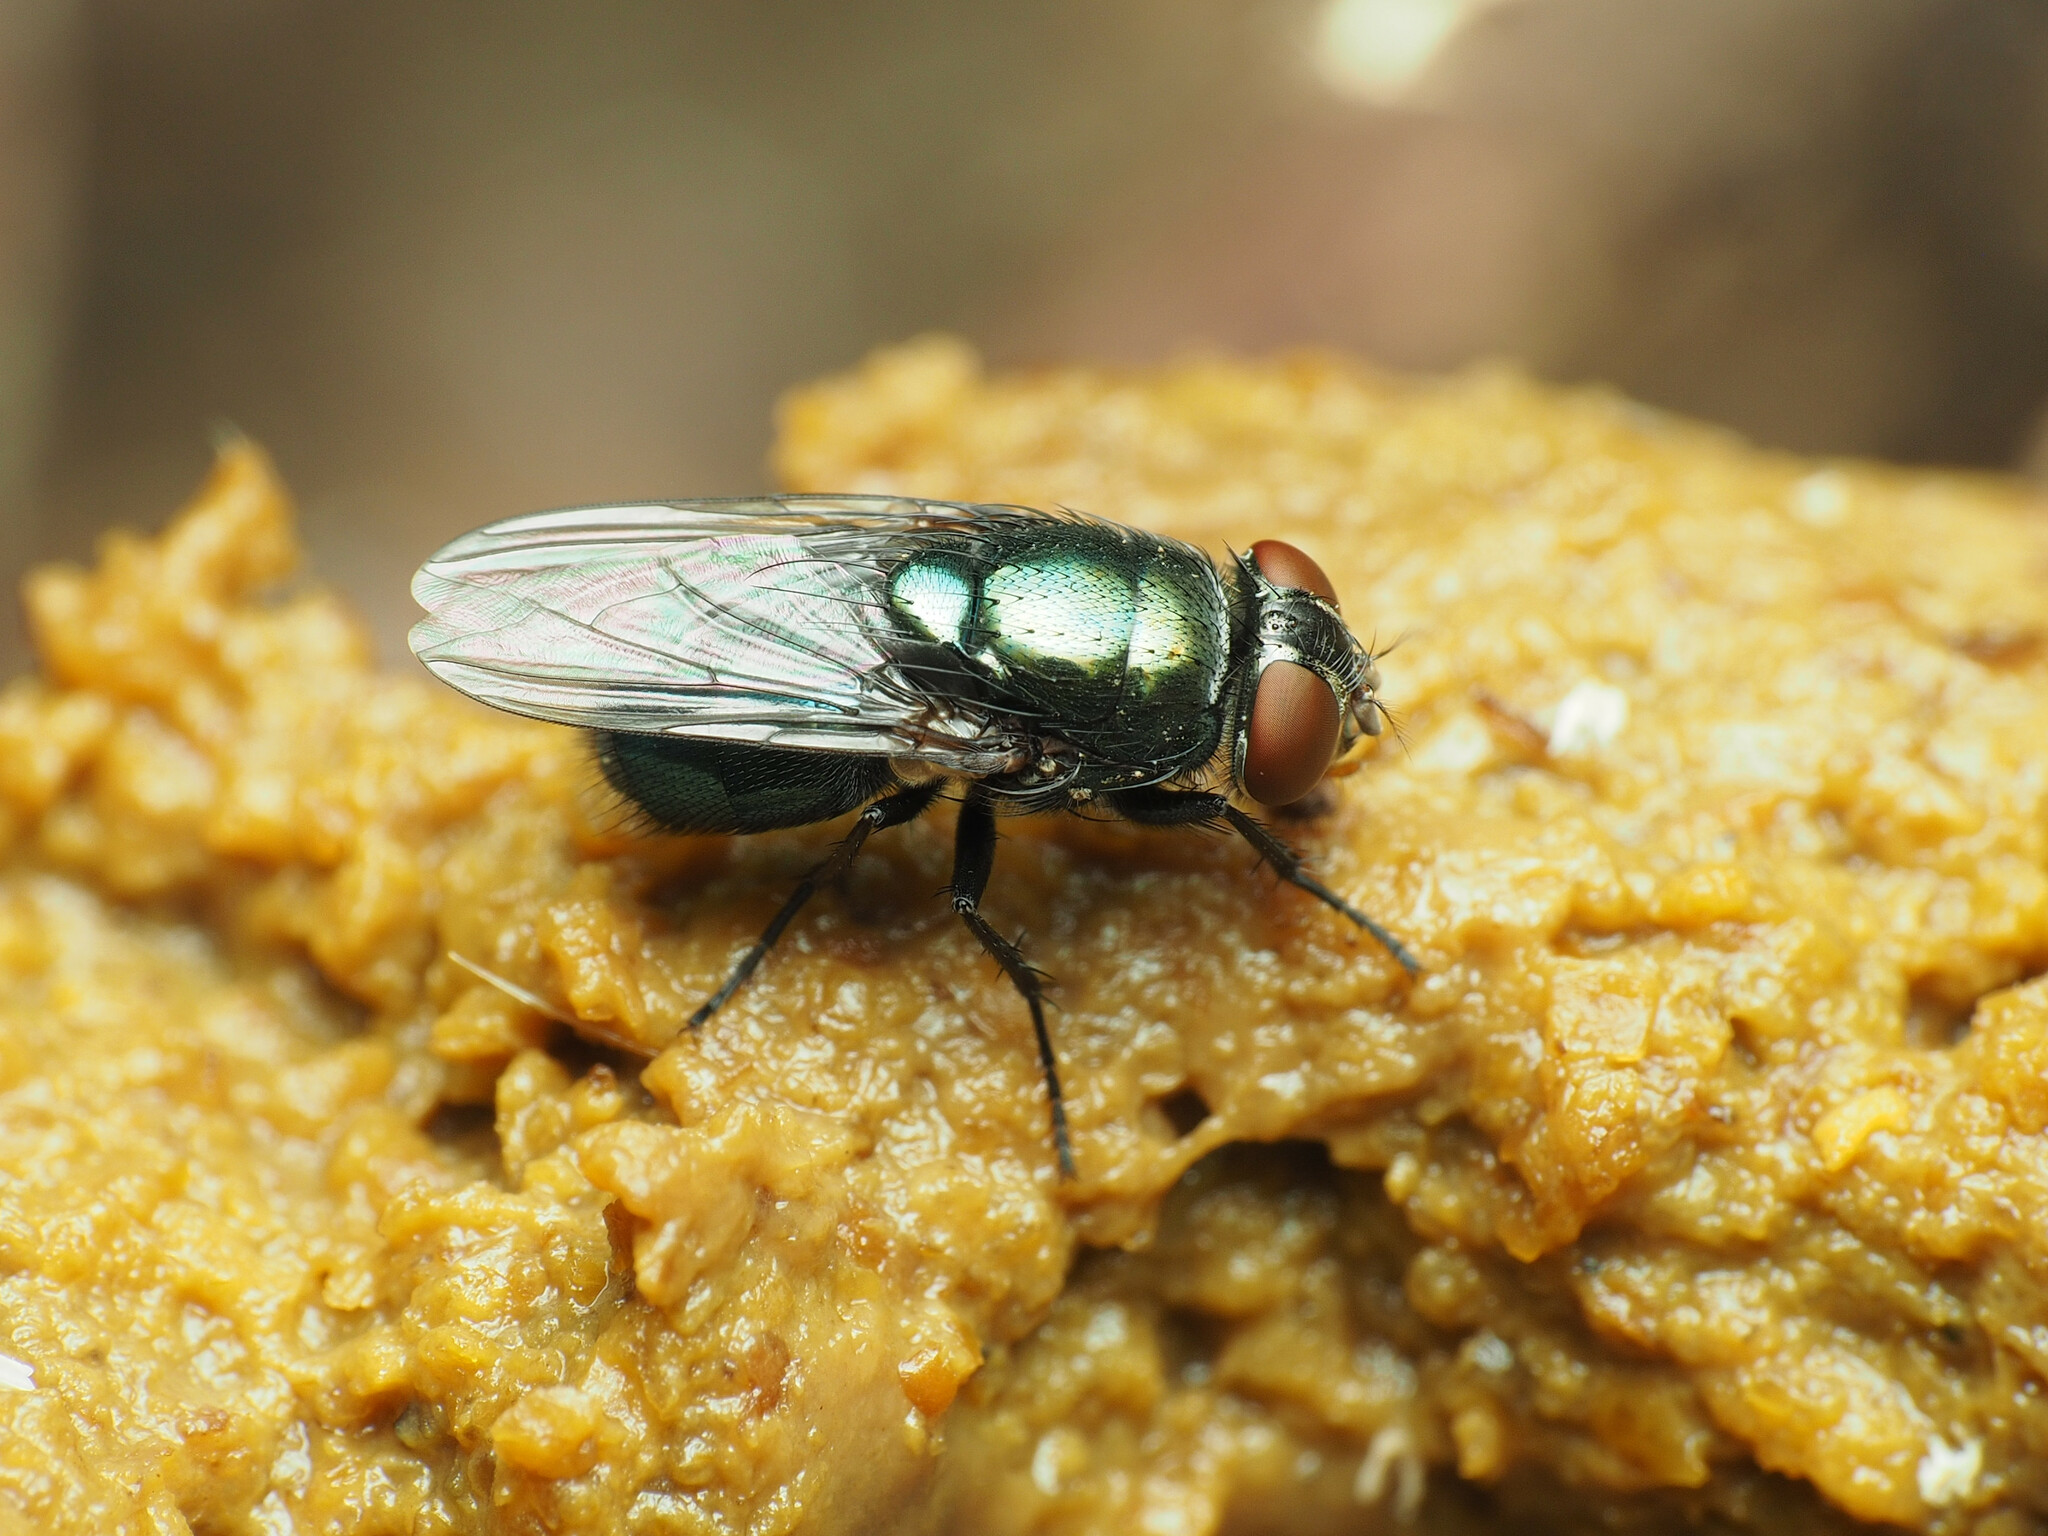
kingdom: Animalia
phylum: Arthropoda
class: Insecta
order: Diptera
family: Calliphoridae
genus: Phormia
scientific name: Phormia regina
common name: Black blow fly
